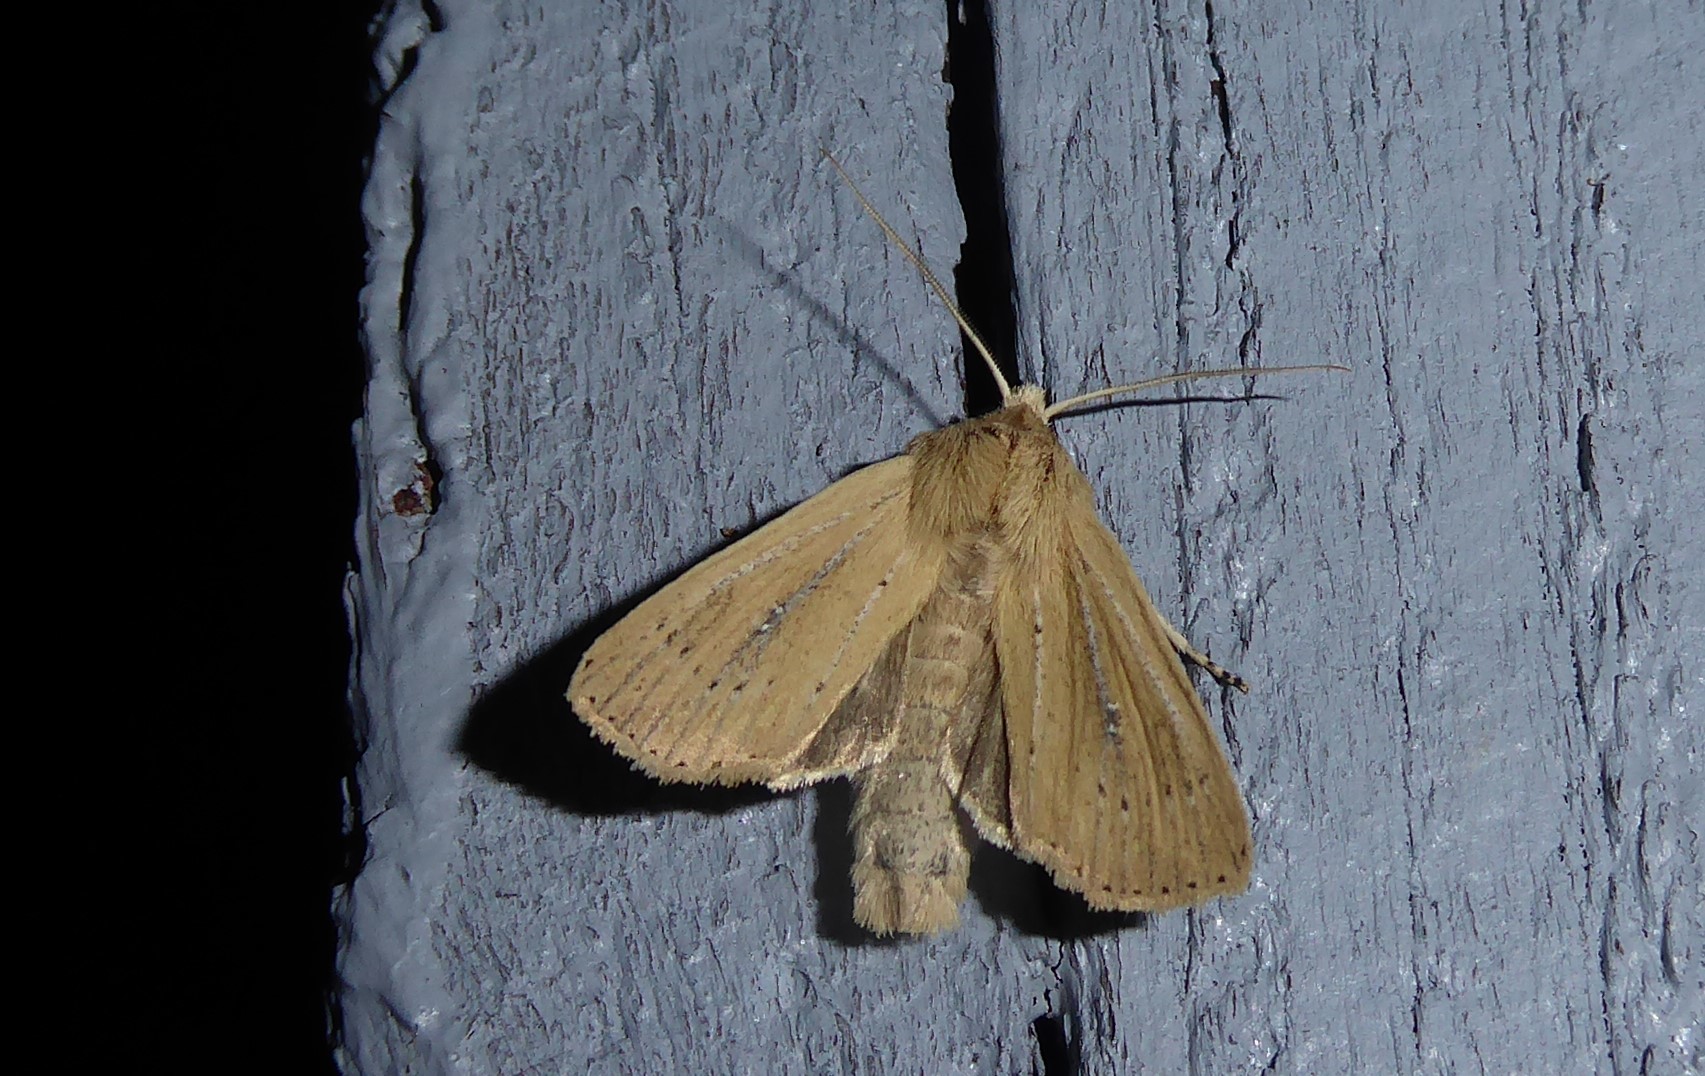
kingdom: Animalia
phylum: Arthropoda
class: Insecta
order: Lepidoptera
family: Noctuidae
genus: Ichneutica
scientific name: Ichneutica
